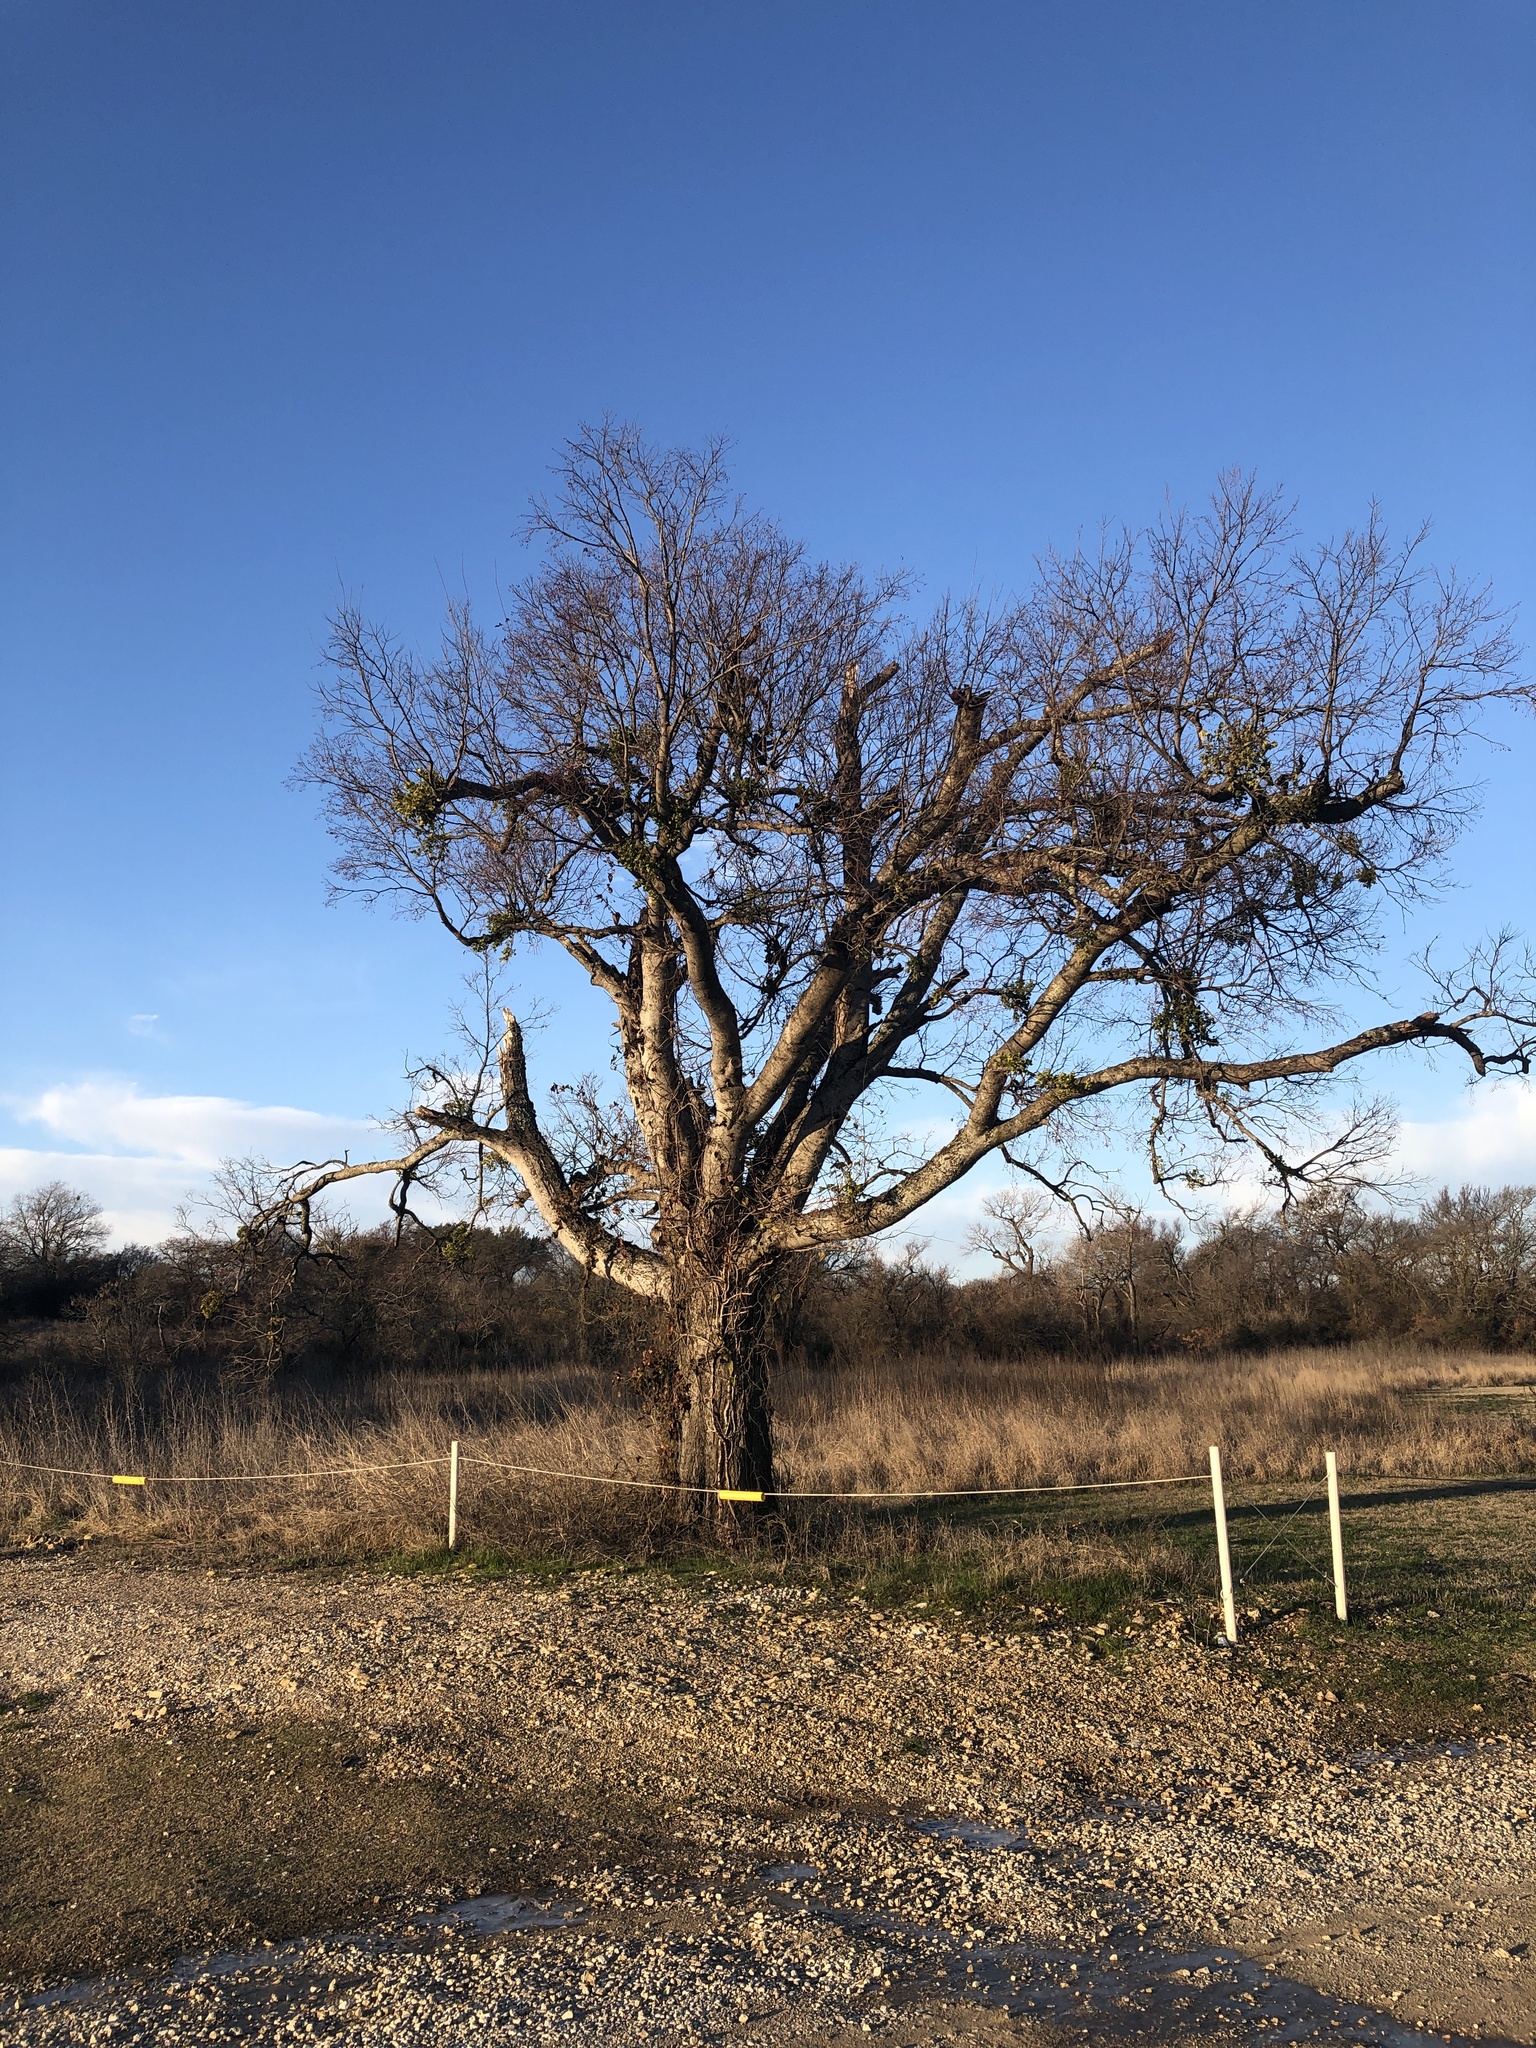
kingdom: Plantae
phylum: Tracheophyta
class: Magnoliopsida
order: Rosales
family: Cannabaceae
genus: Celtis
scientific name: Celtis laevigata
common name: Sugarberry
